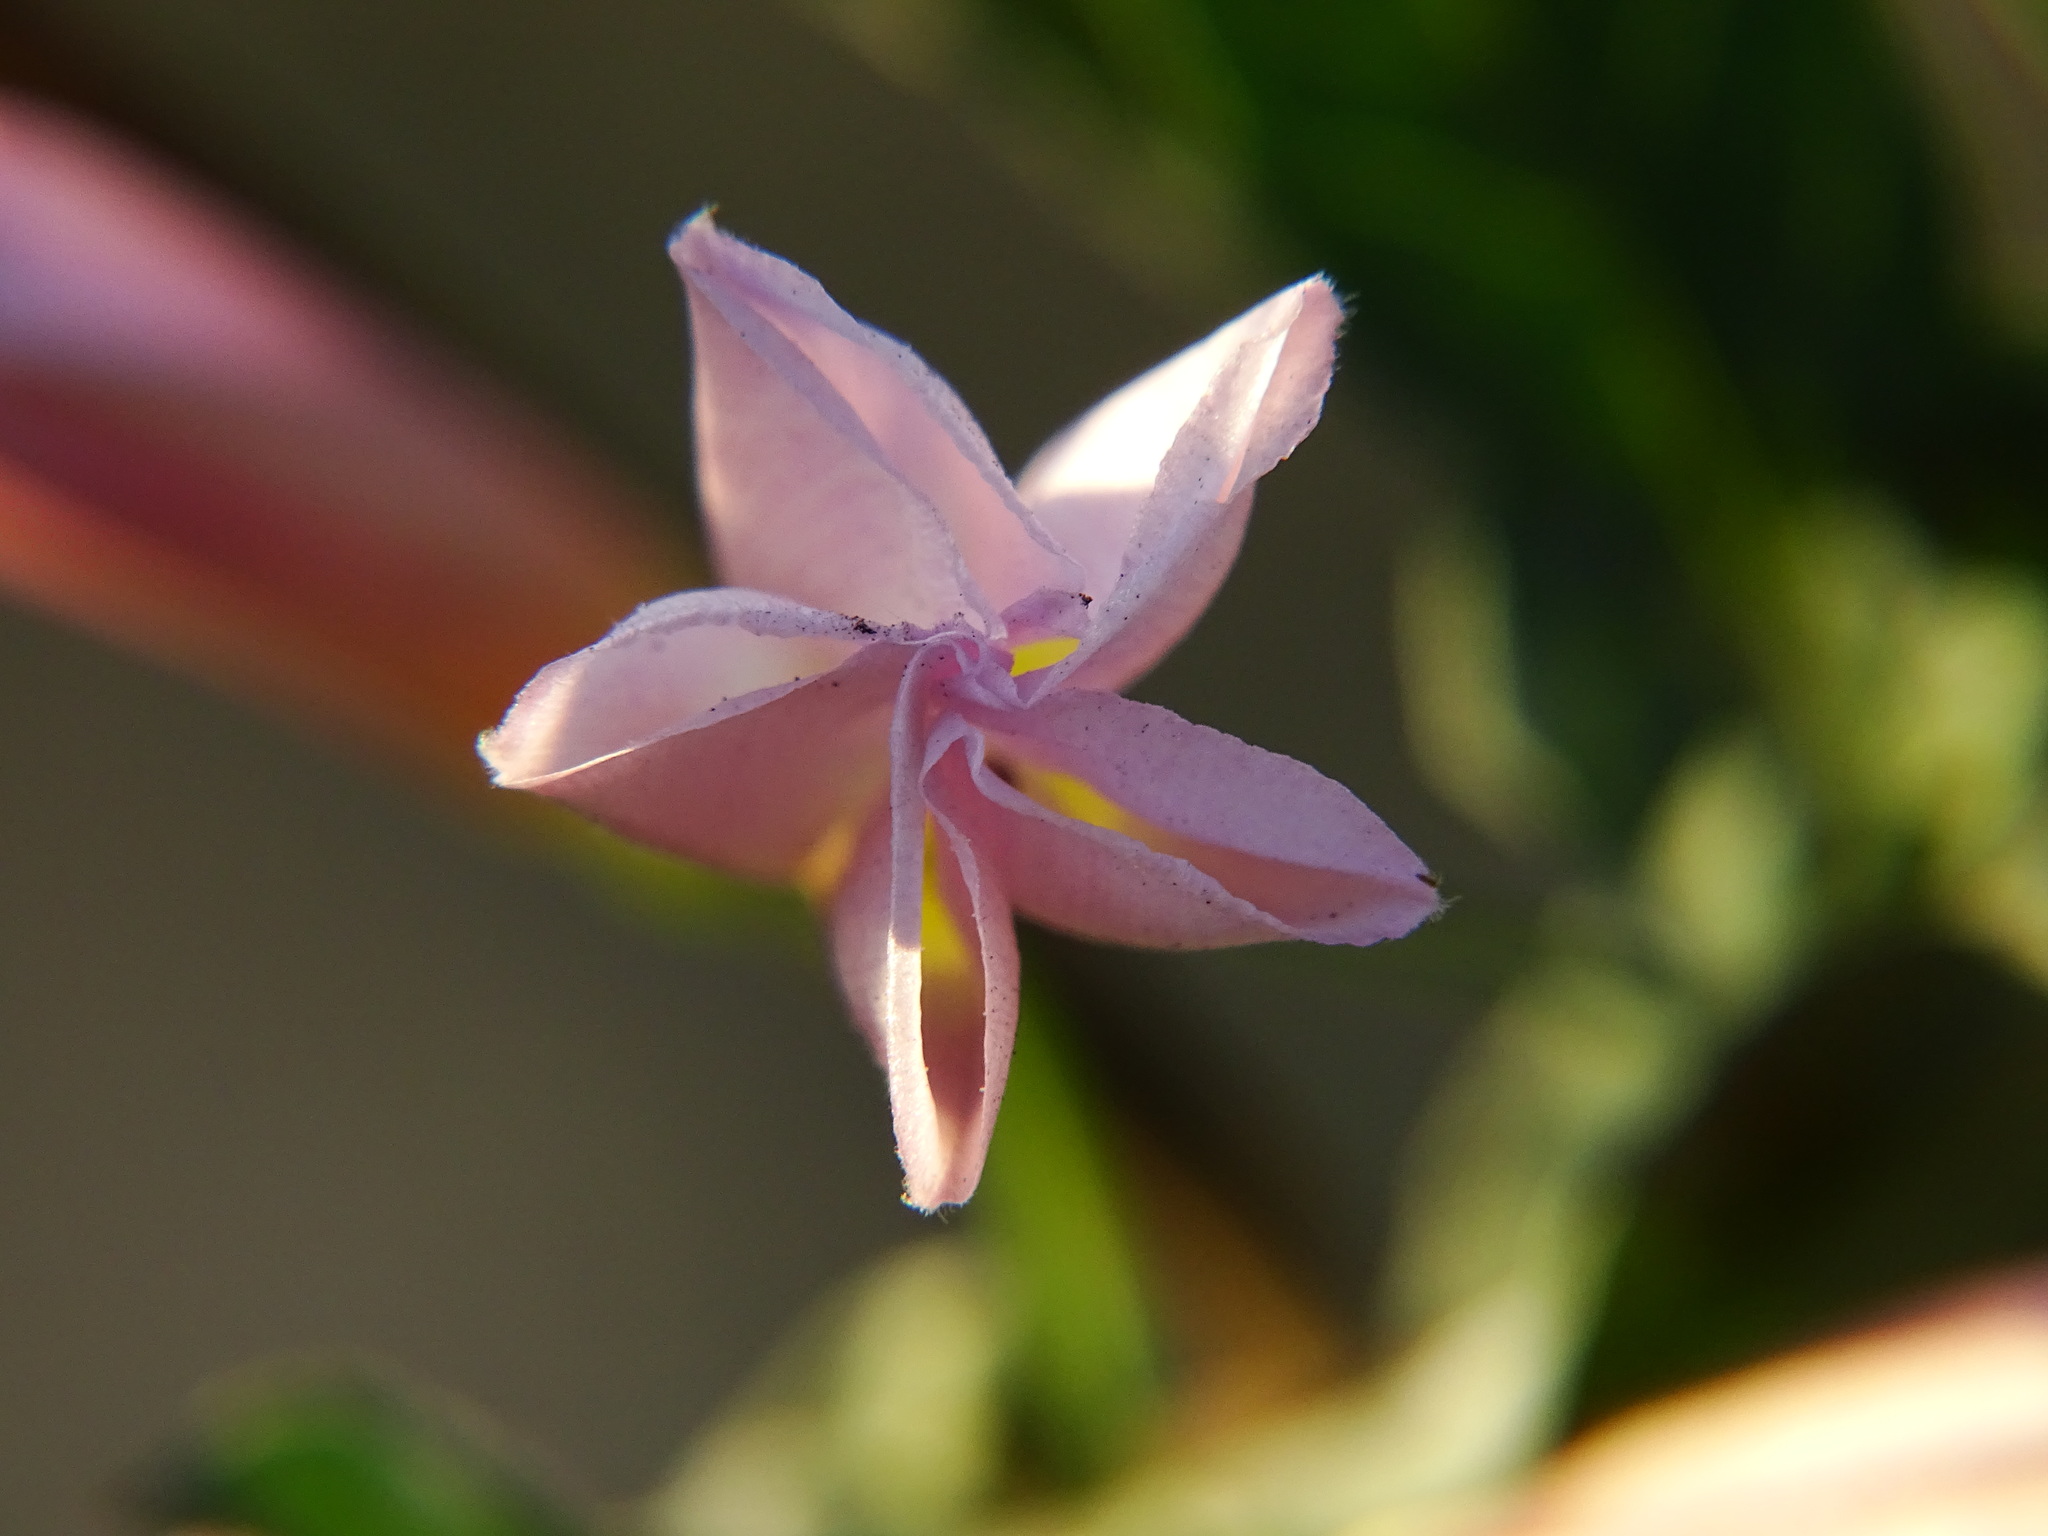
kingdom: Plantae
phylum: Tracheophyta
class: Magnoliopsida
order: Solanales
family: Convolvulaceae
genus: Convolvulus
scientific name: Convolvulus arvensis
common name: Field bindweed
